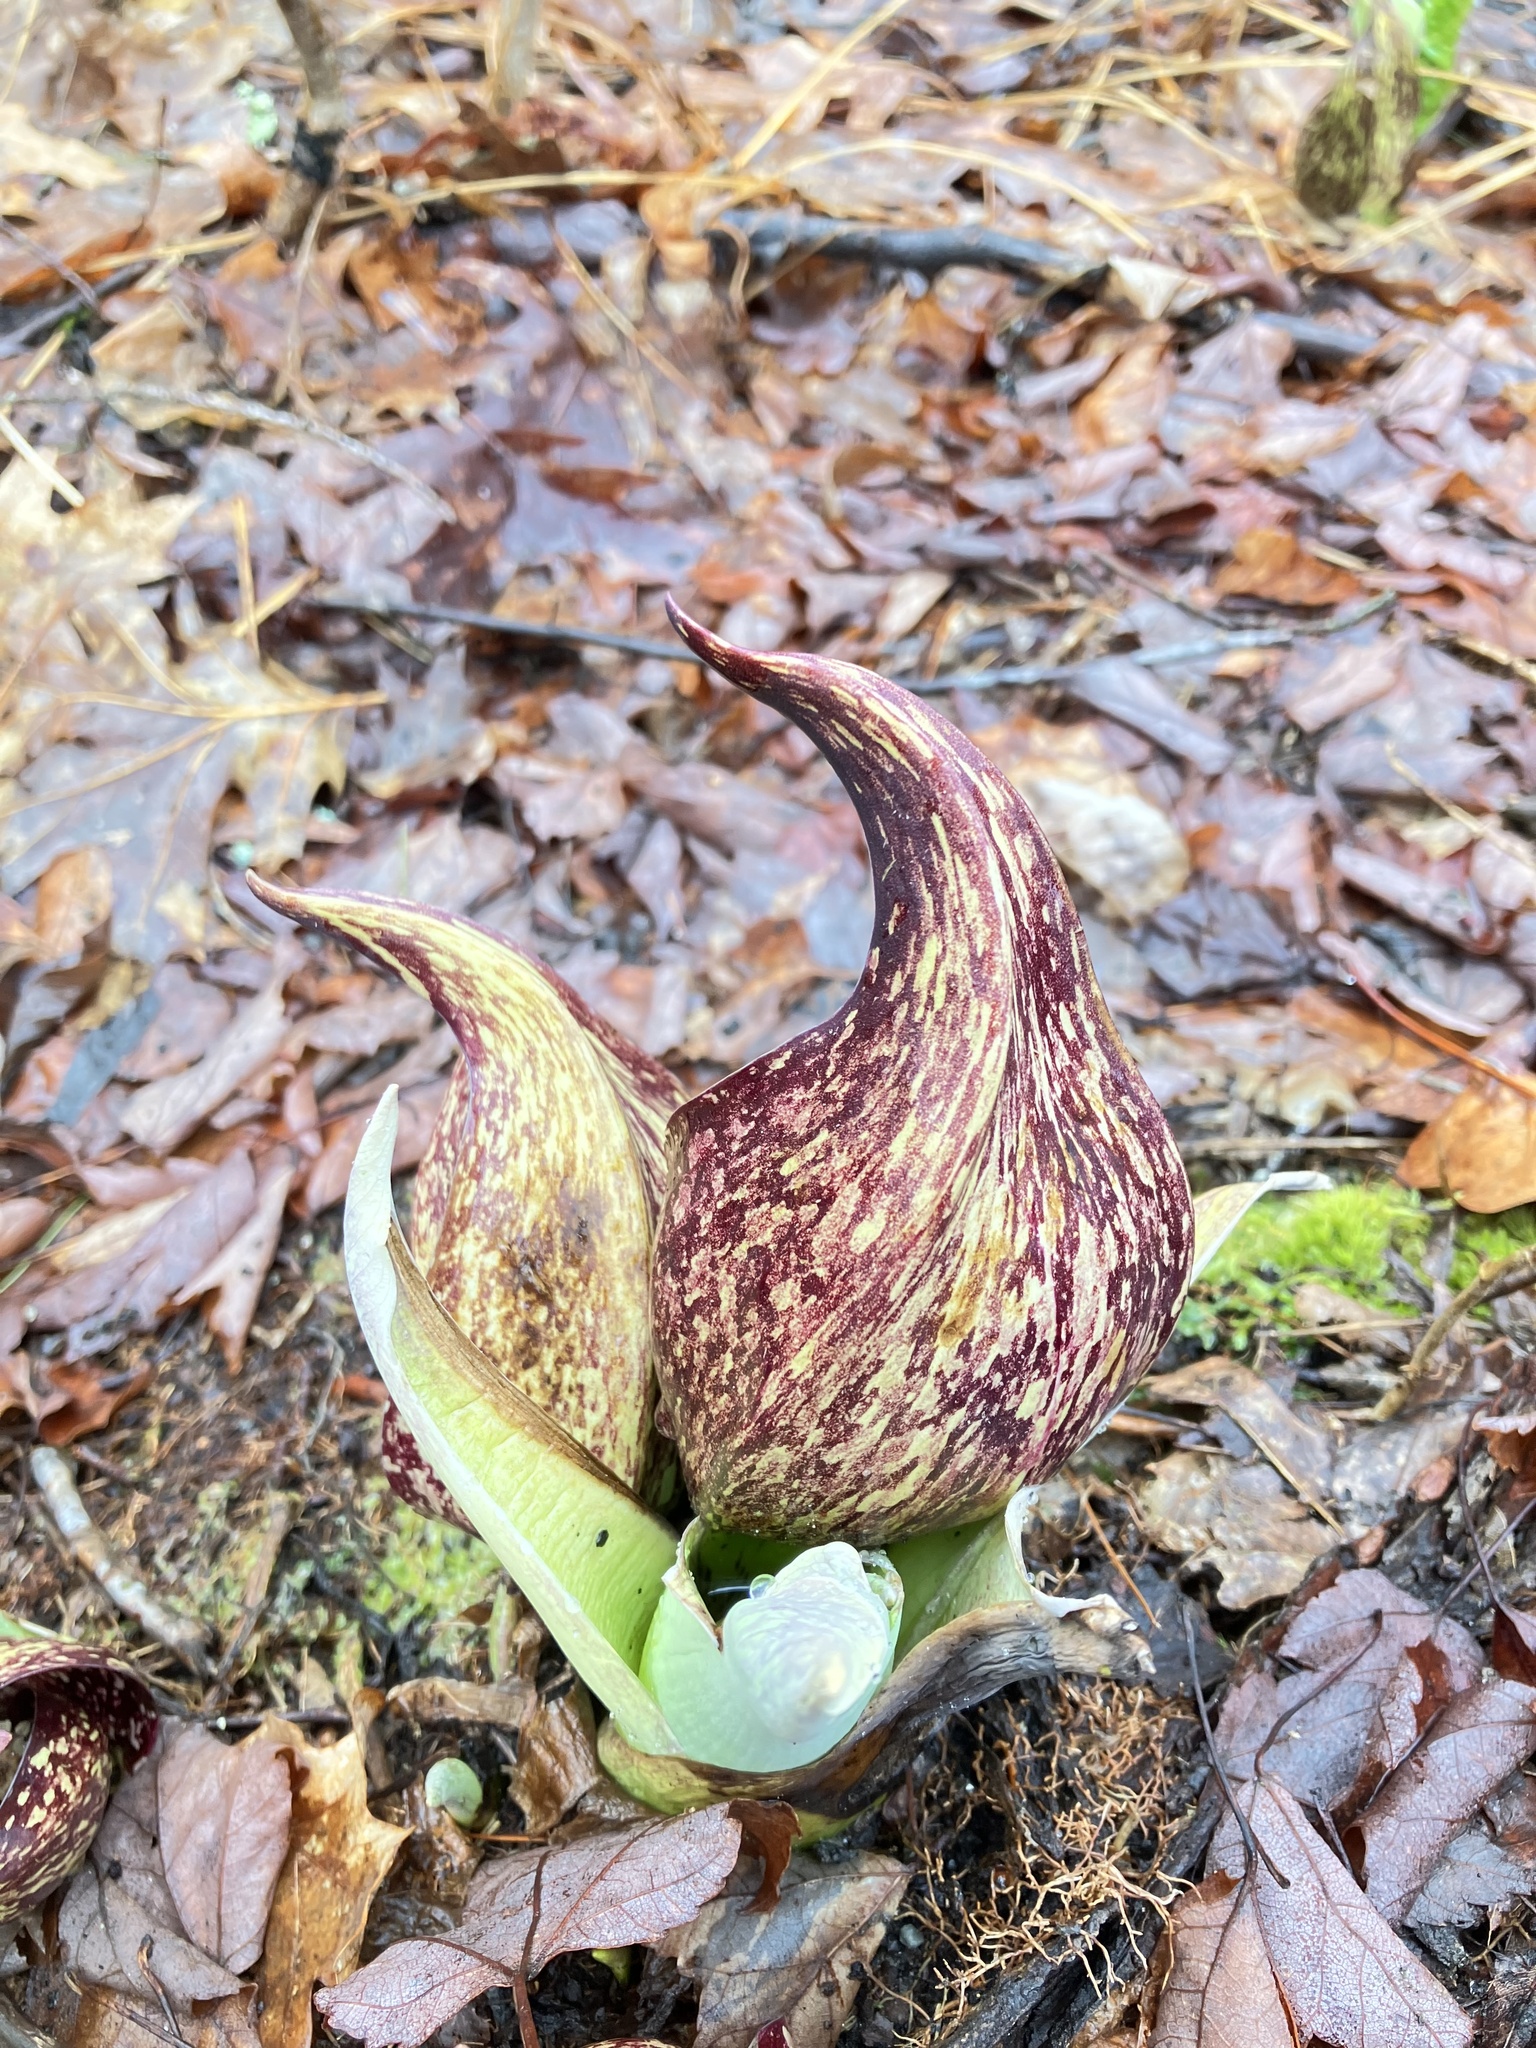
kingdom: Plantae
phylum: Tracheophyta
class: Liliopsida
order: Alismatales
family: Araceae
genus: Symplocarpus
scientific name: Symplocarpus foetidus
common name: Eastern skunk cabbage
